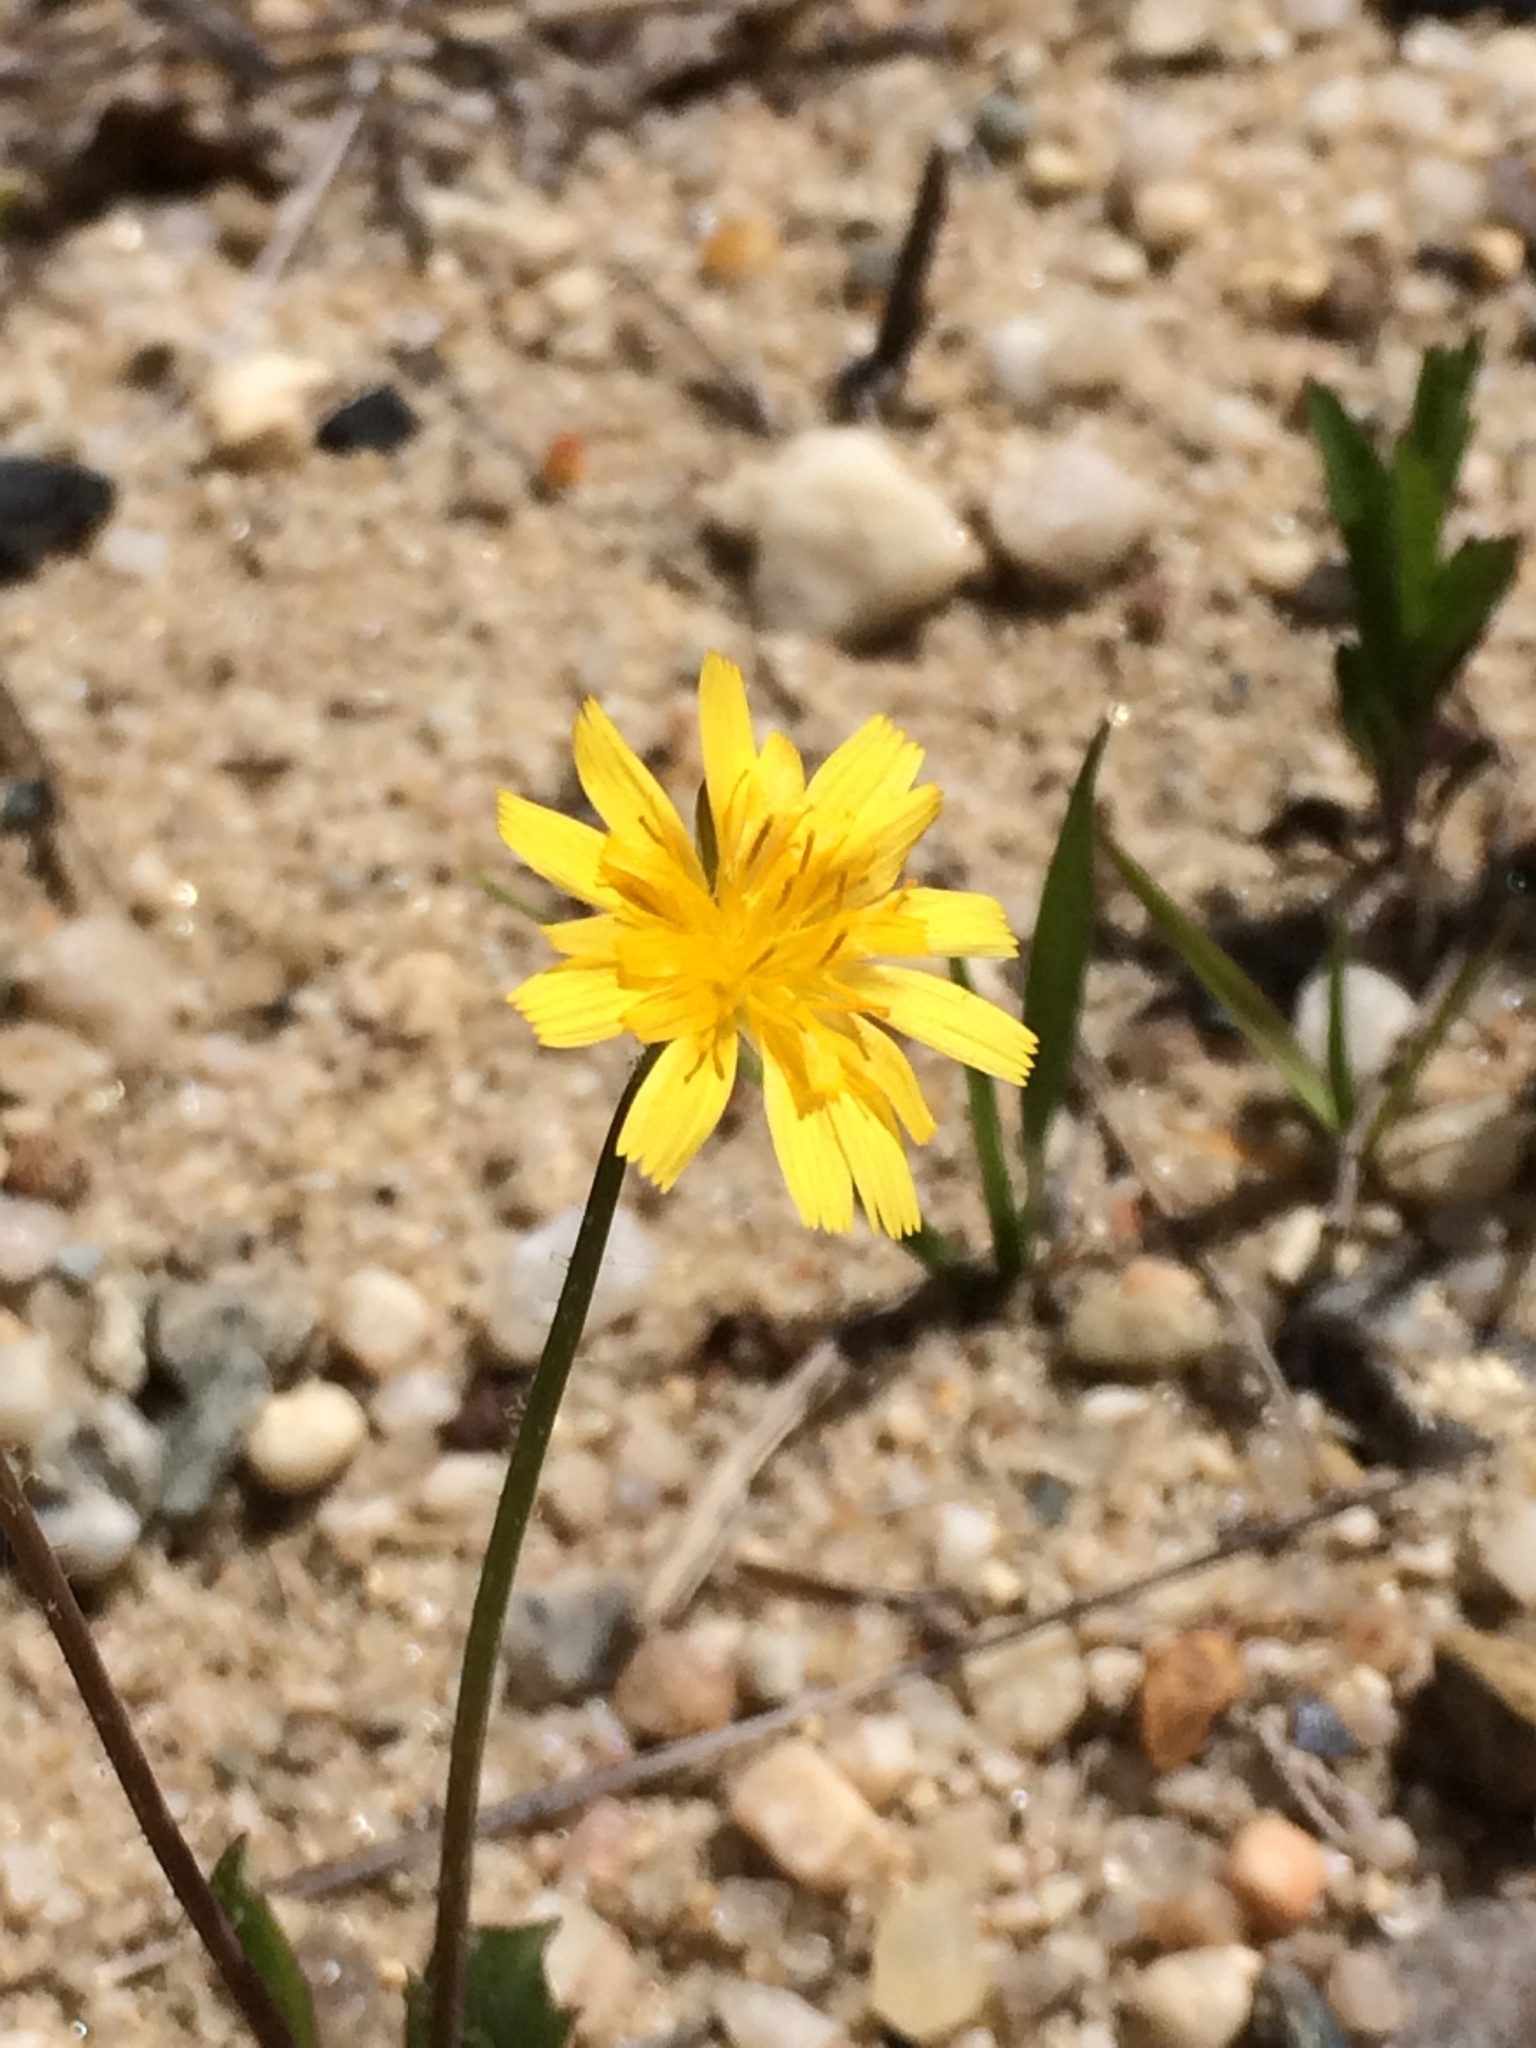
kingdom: Plantae
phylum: Tracheophyta
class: Magnoliopsida
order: Asterales
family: Asteraceae
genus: Krigia
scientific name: Krigia virginica
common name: Virginia dwarf-dandelion
